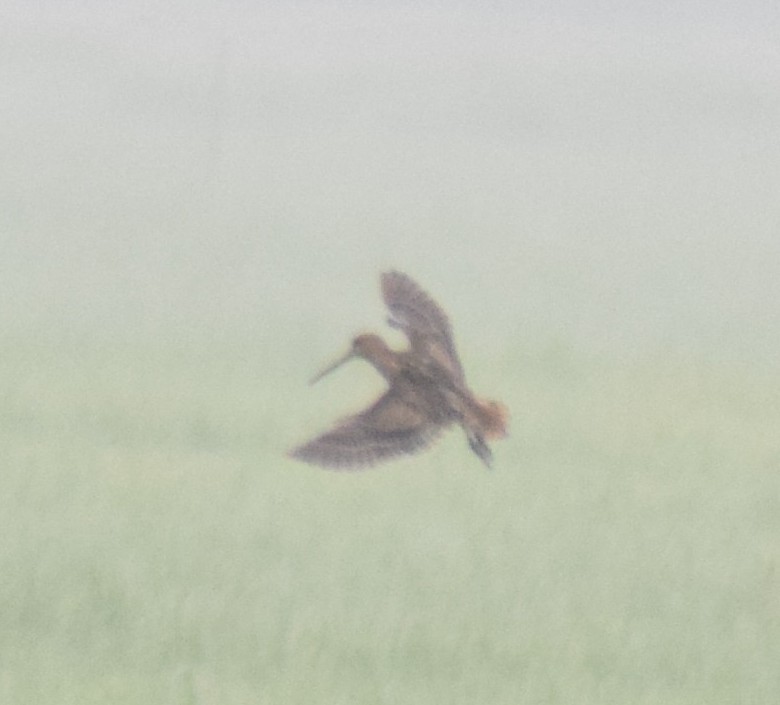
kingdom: Animalia
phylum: Chordata
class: Aves
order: Charadriiformes
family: Scolopacidae
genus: Gallinago
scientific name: Gallinago stenura
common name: Pin-tailed snipe
